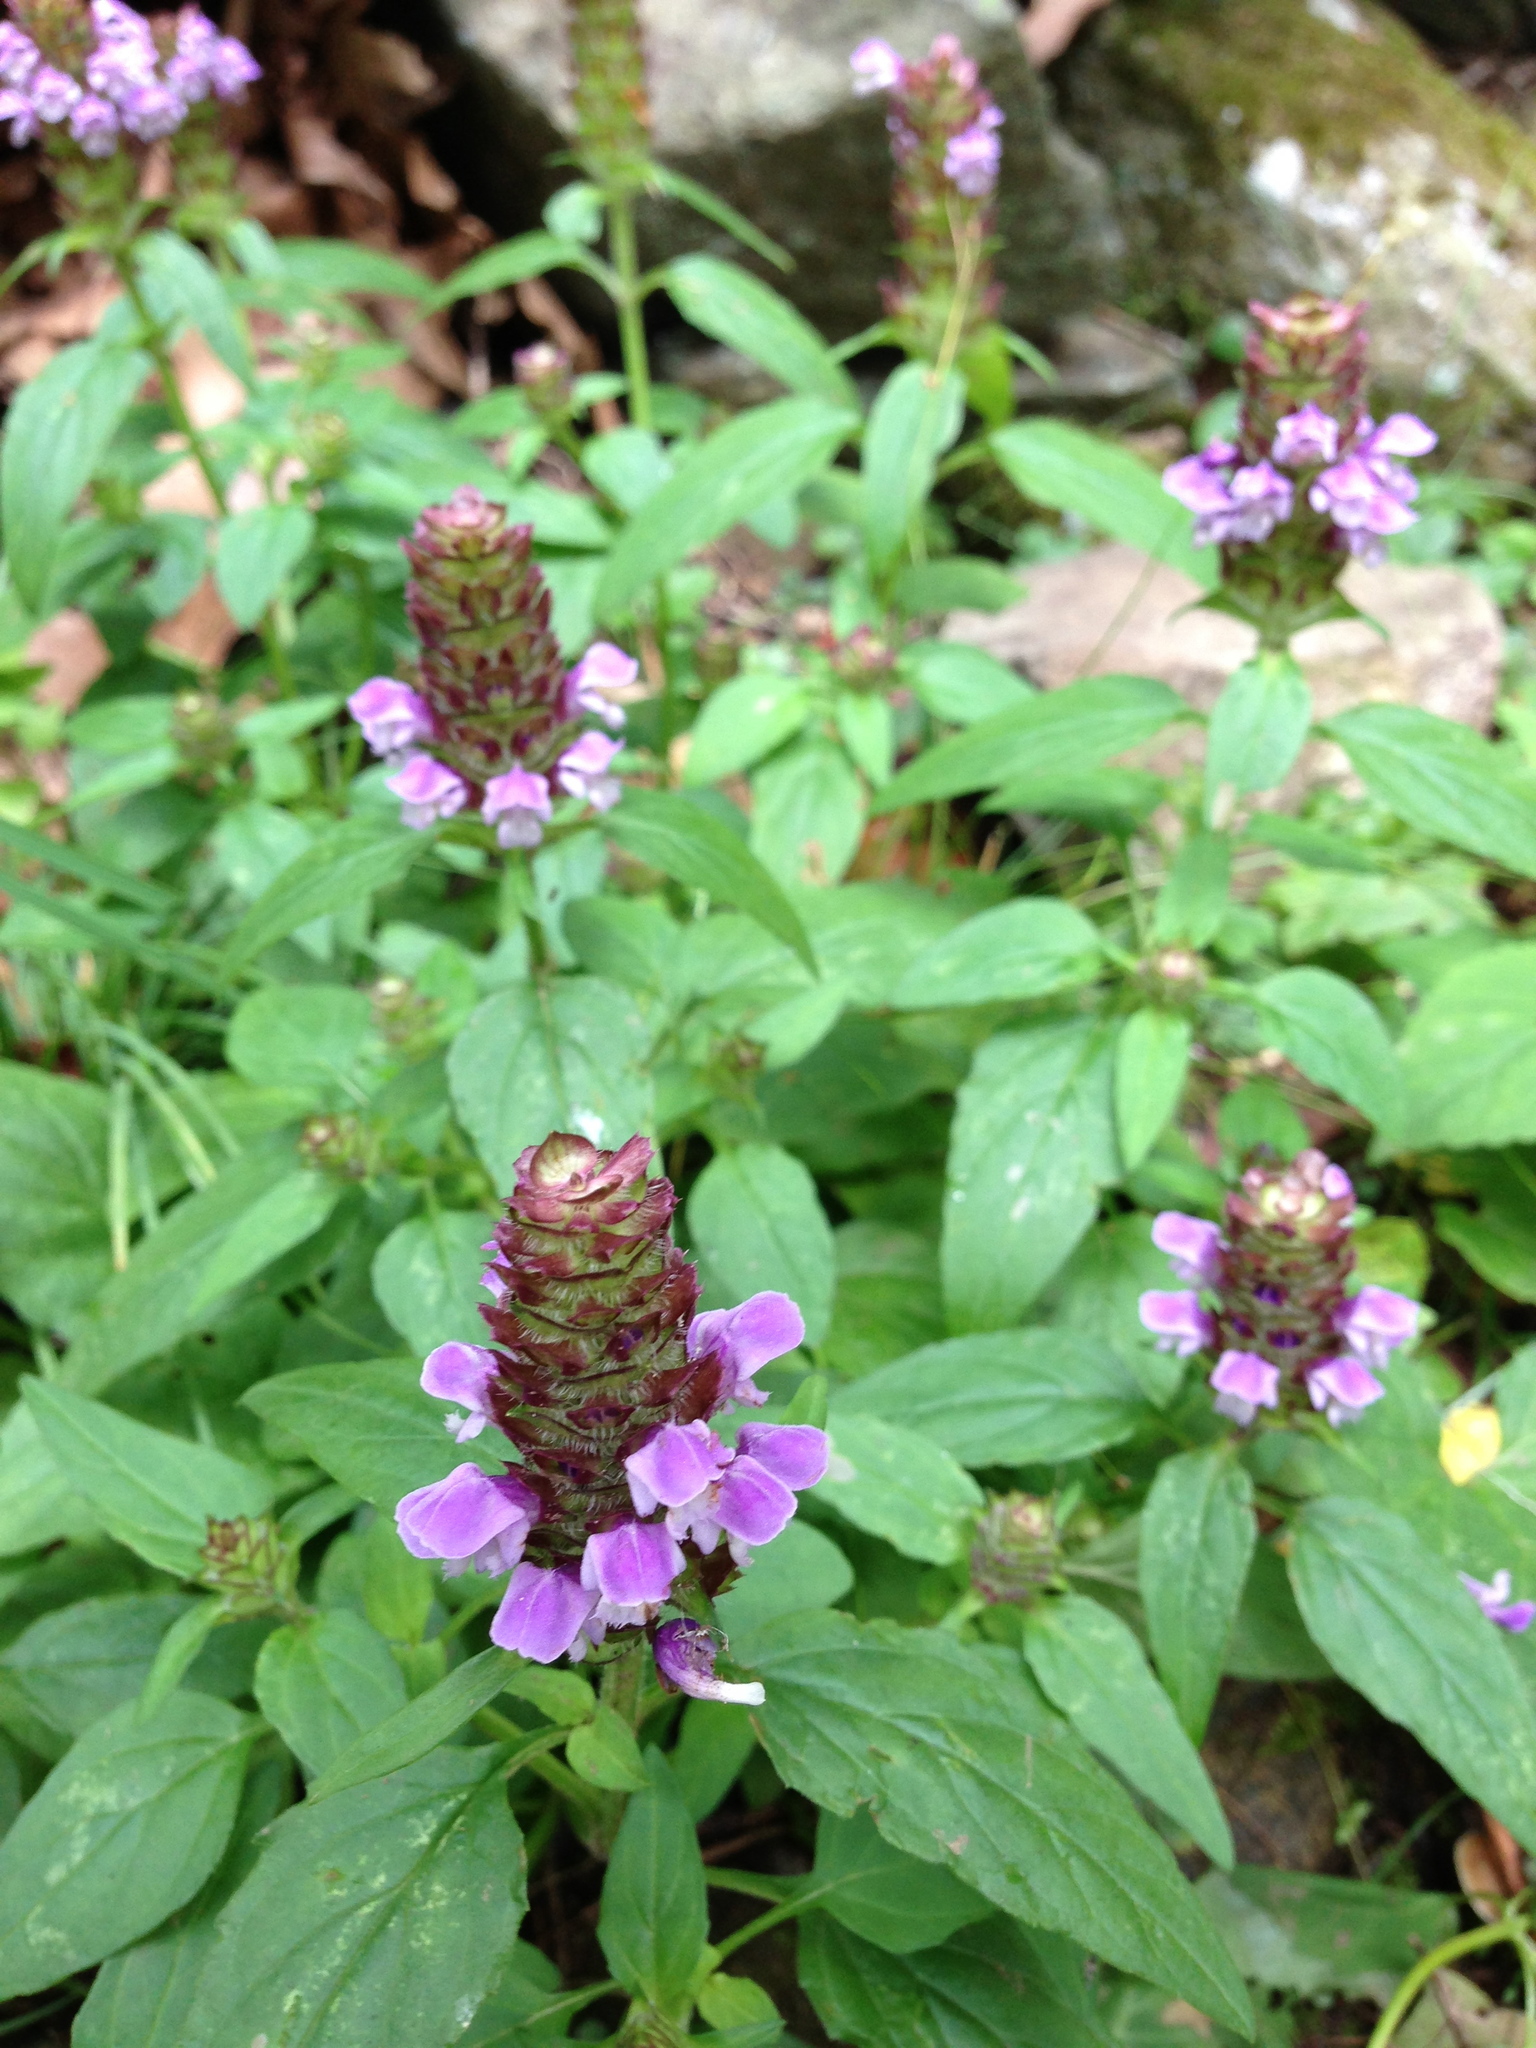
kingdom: Plantae
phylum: Tracheophyta
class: Magnoliopsida
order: Lamiales
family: Lamiaceae
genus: Prunella
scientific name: Prunella vulgaris
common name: Heal-all
